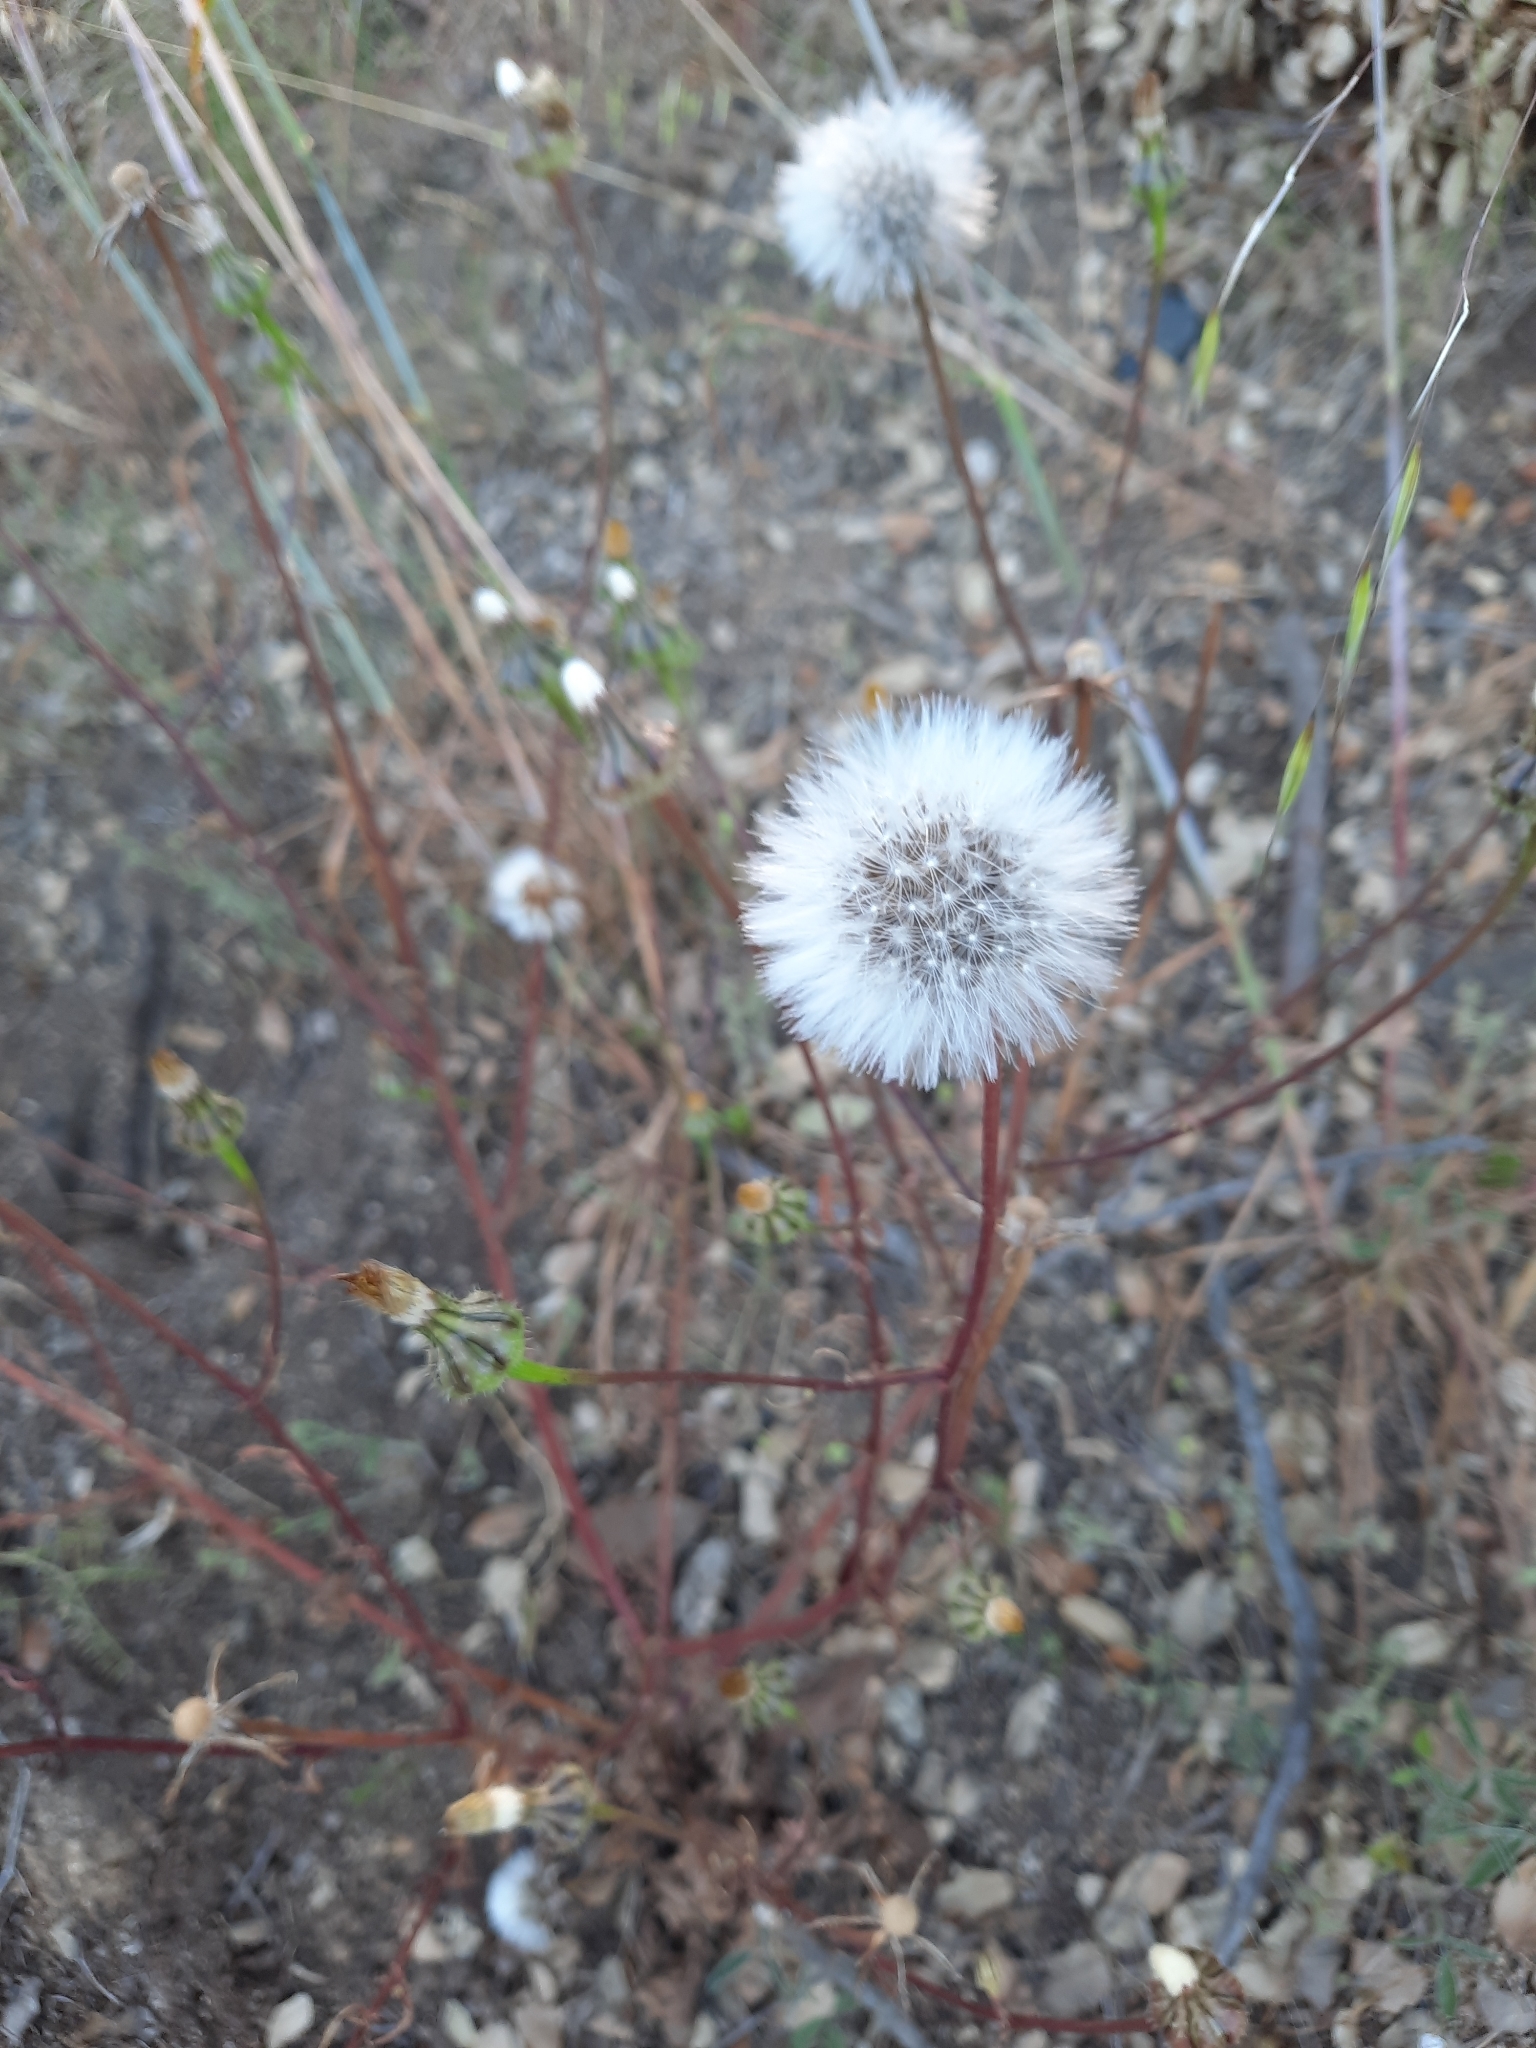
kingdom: Plantae
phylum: Tracheophyta
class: Magnoliopsida
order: Asterales
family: Asteraceae
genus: Urospermum
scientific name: Urospermum picroides
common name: False hawkbit
